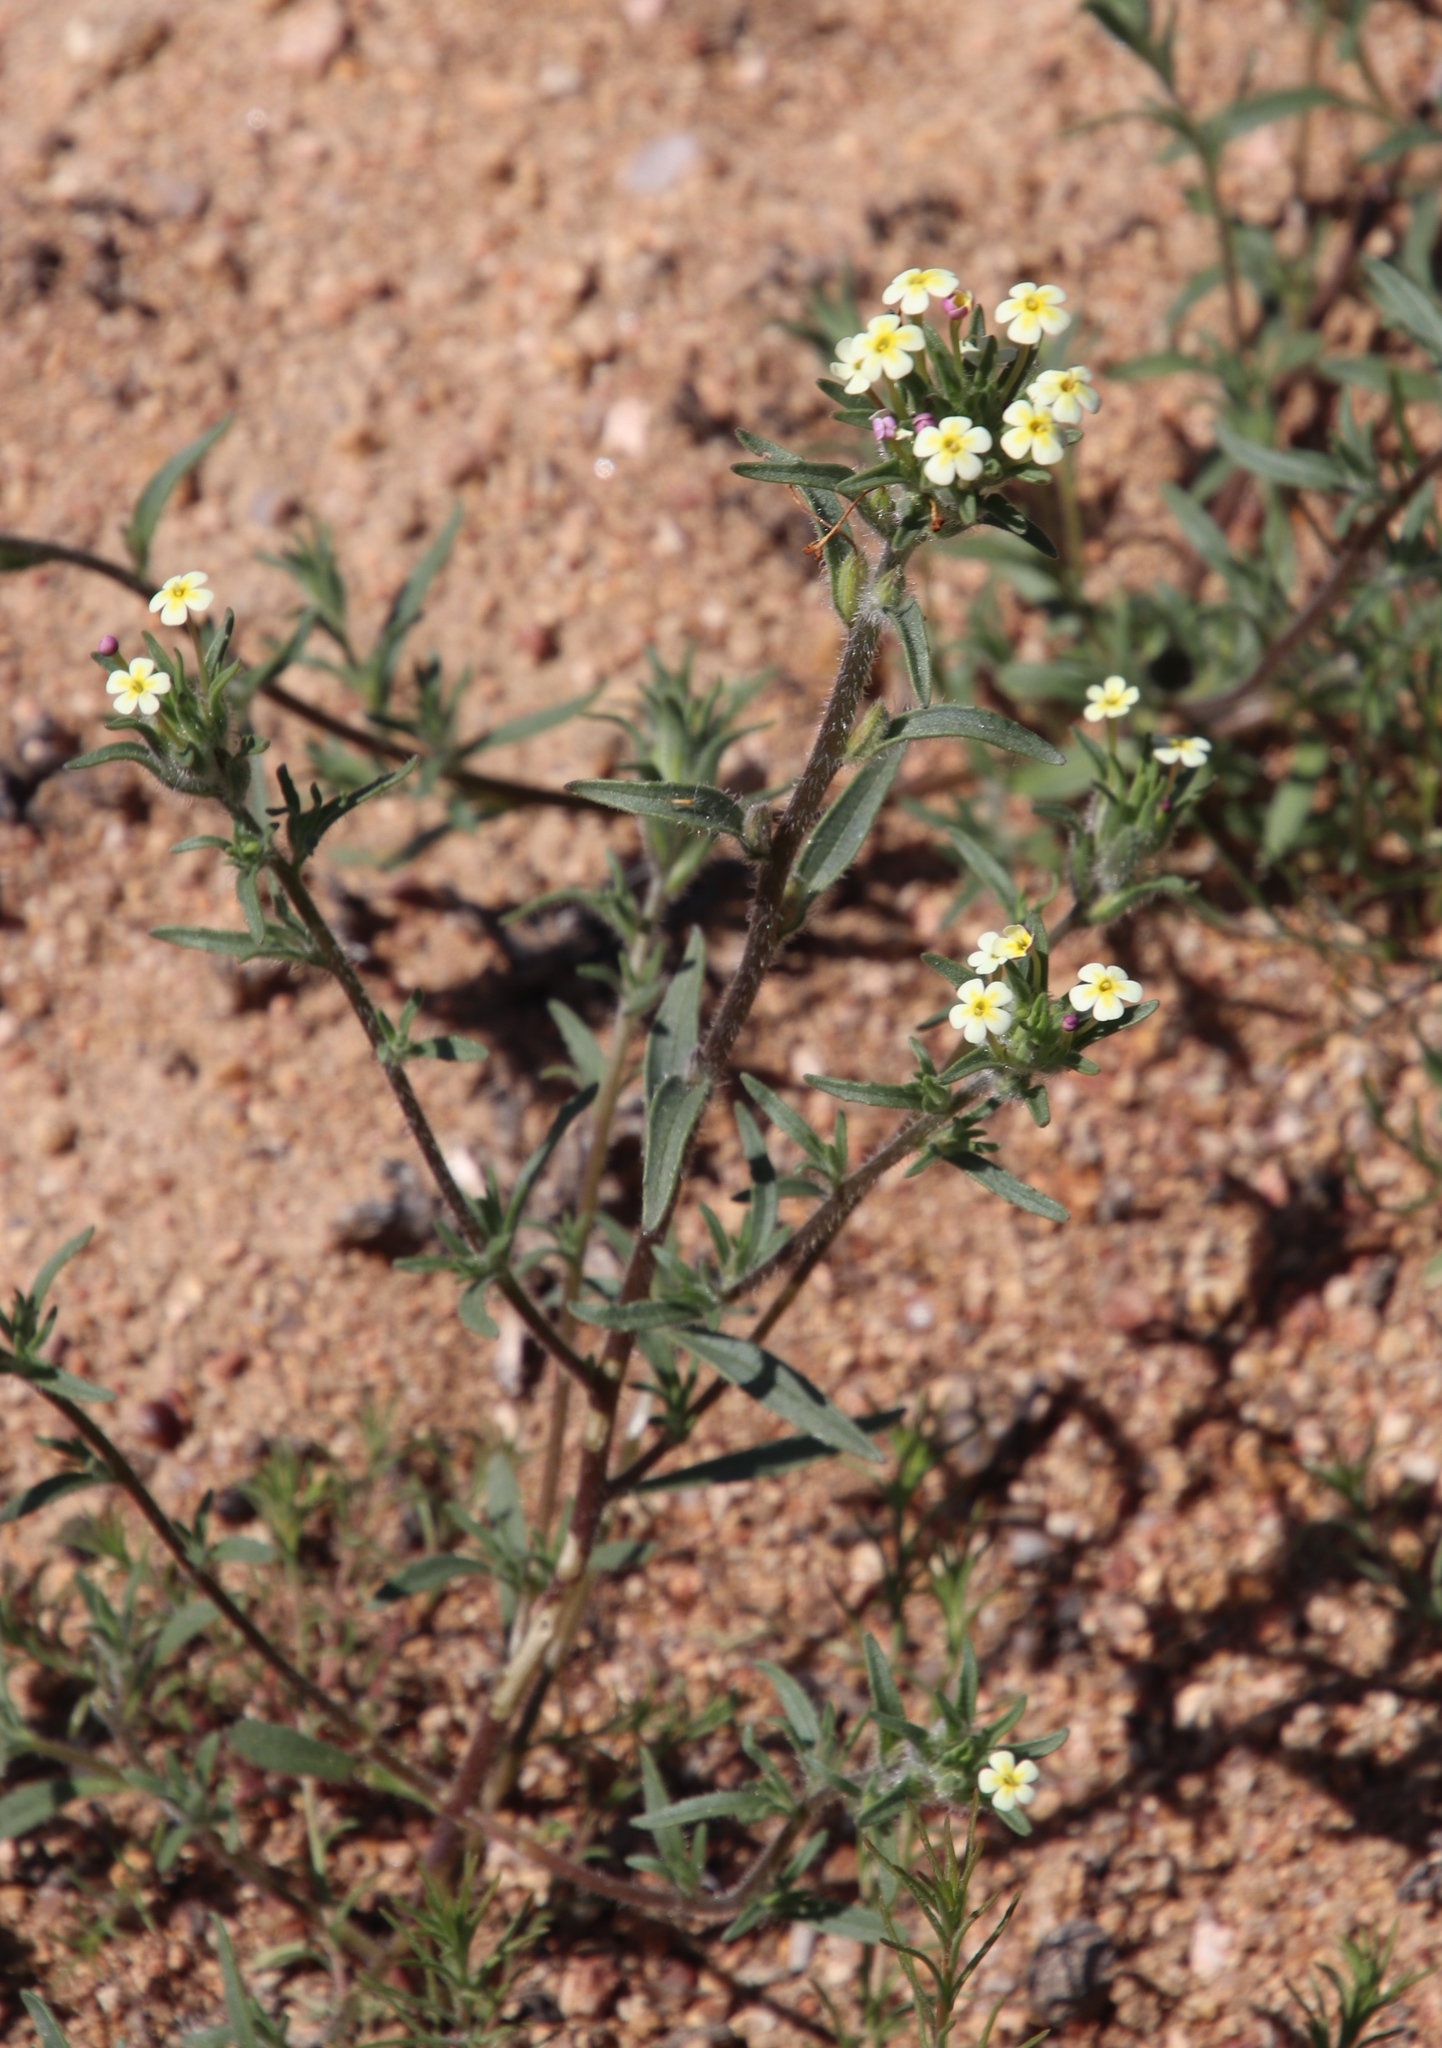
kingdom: Plantae
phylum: Tracheophyta
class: Magnoliopsida
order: Lamiales
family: Scrophulariaceae
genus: Zaluzianskya
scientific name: Zaluzianskya benthamiana
